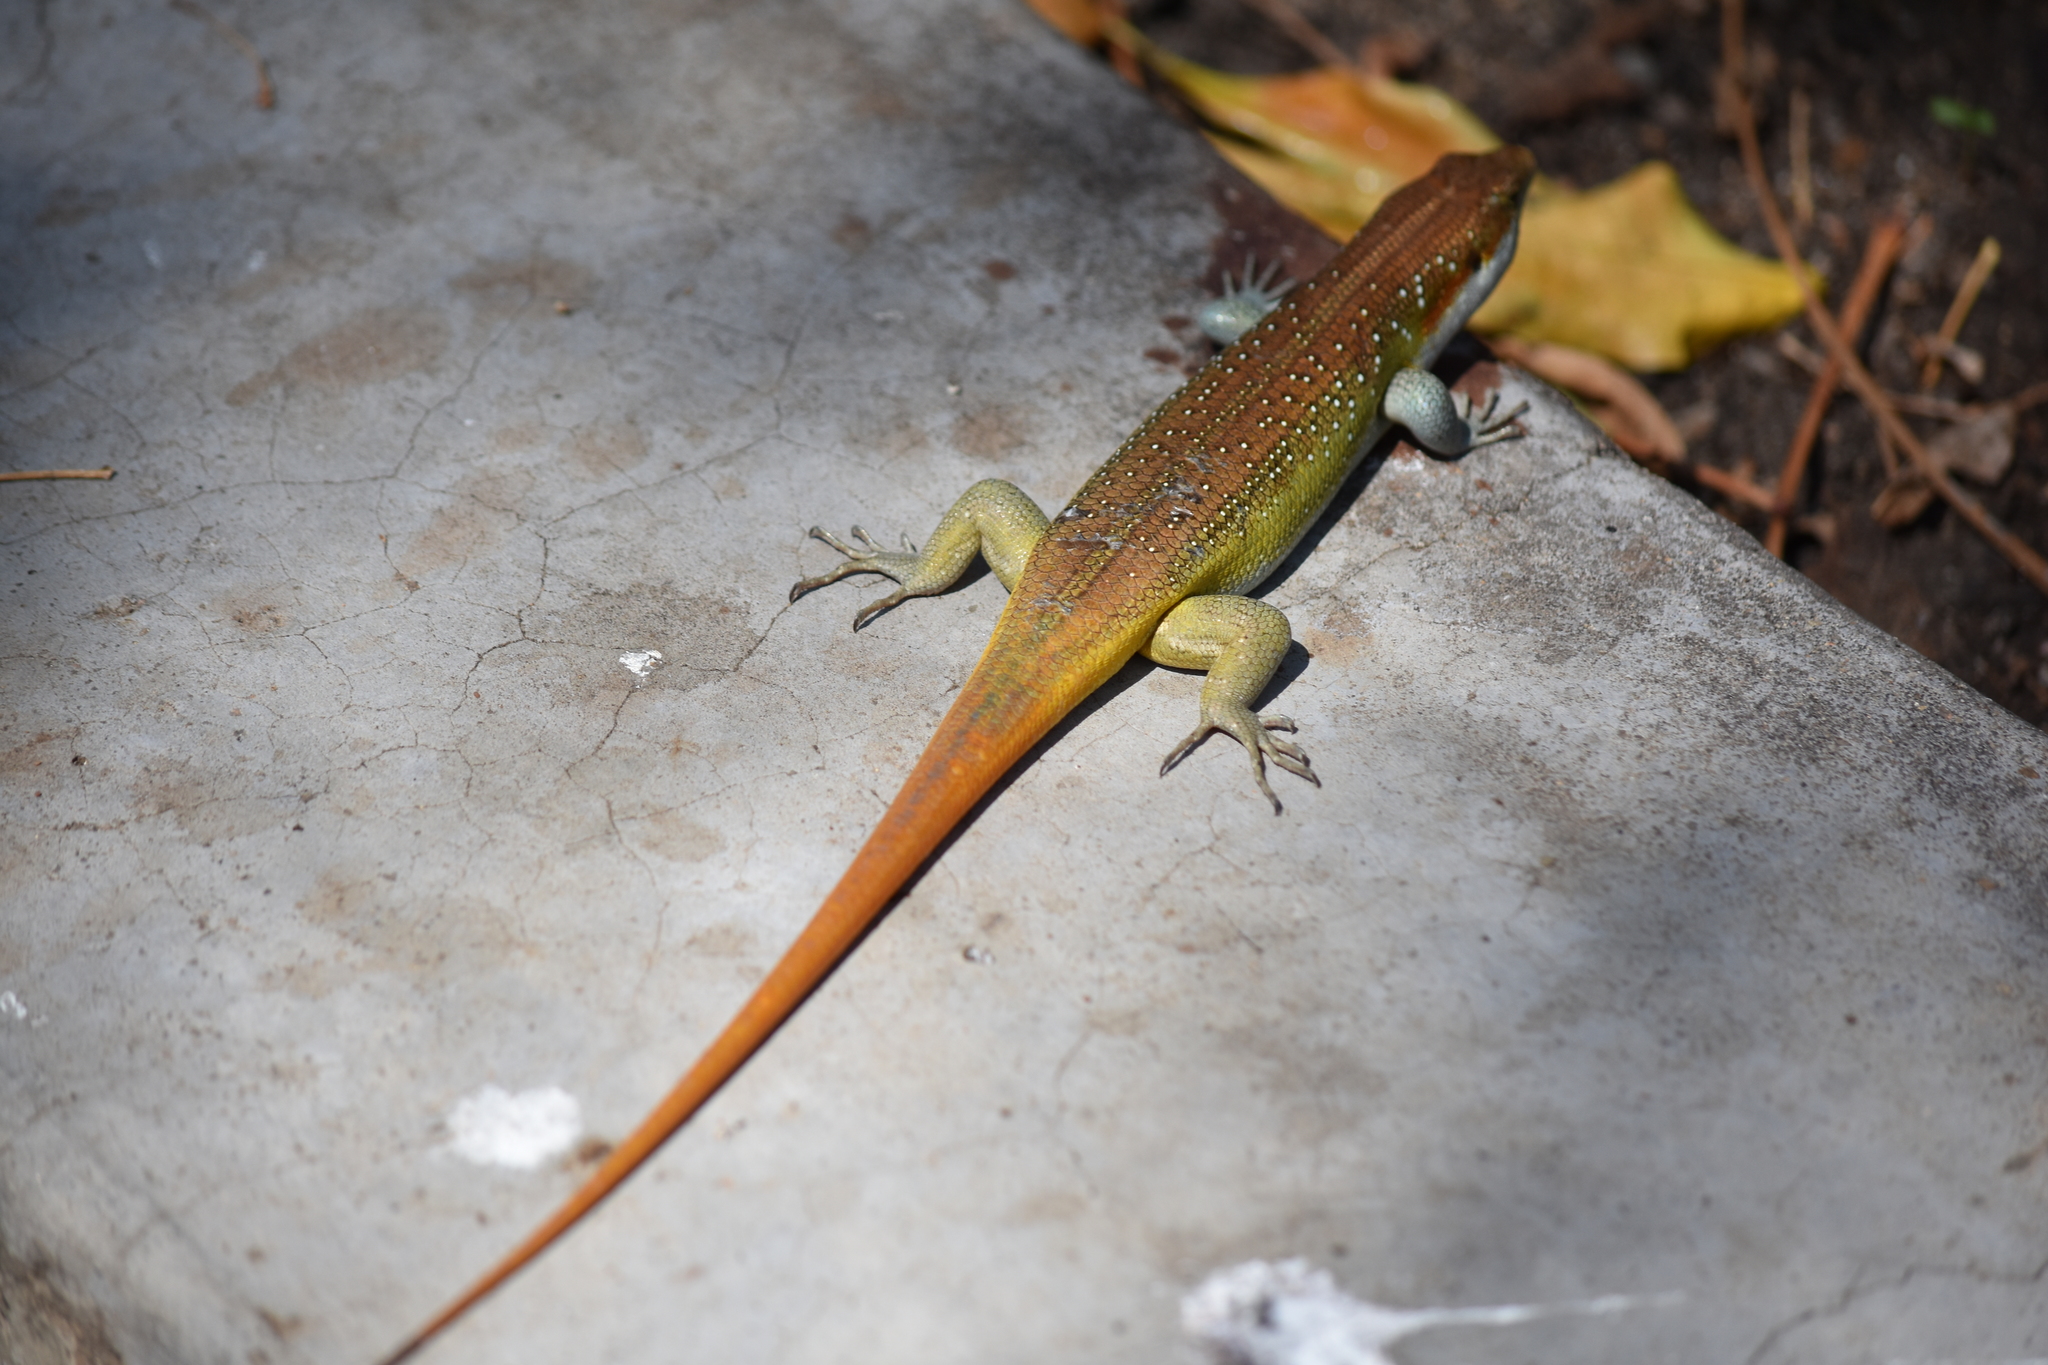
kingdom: Animalia
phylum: Chordata
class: Squamata
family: Scincidae
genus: Trachylepis
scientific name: Trachylepis margaritifera
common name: Rainbow skink
